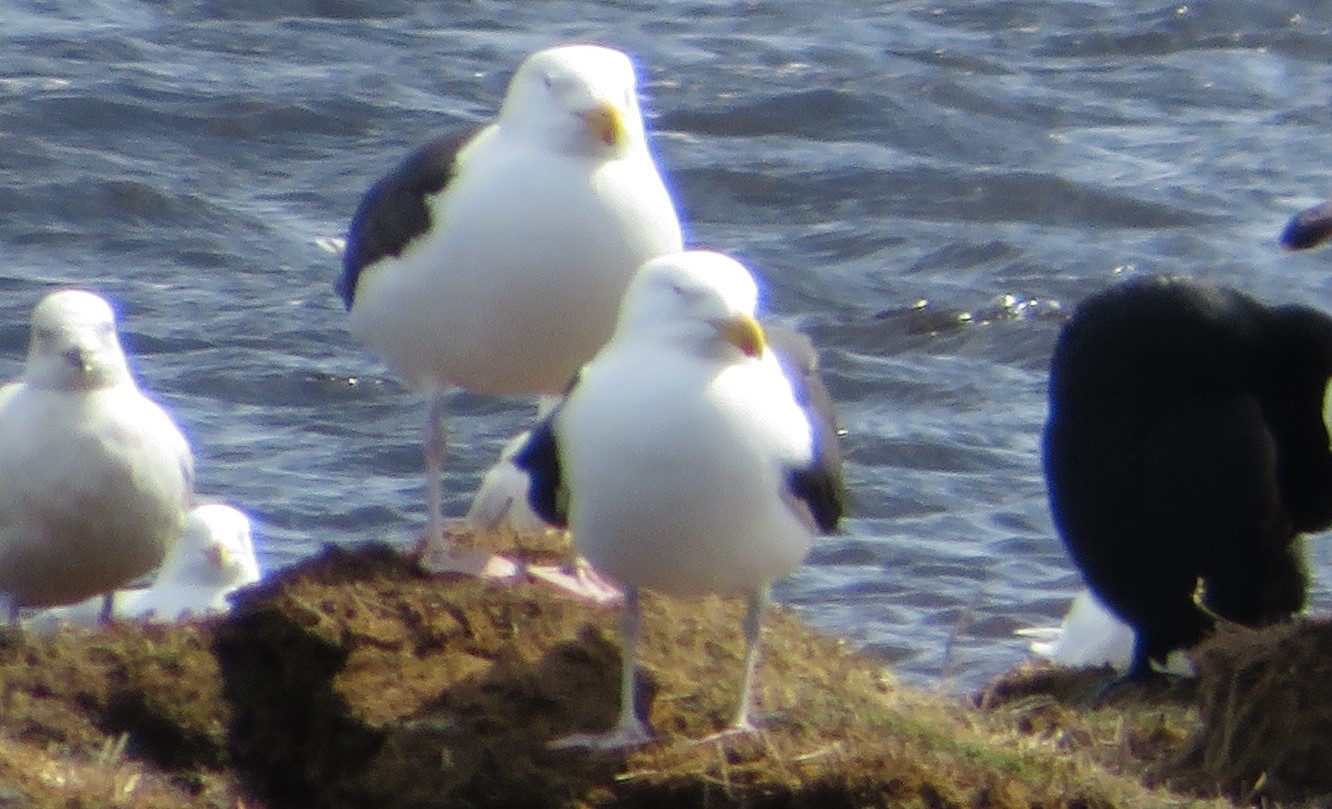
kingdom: Animalia
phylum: Chordata
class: Aves
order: Charadriiformes
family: Laridae
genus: Larus
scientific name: Larus marinus
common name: Great black-backed gull
